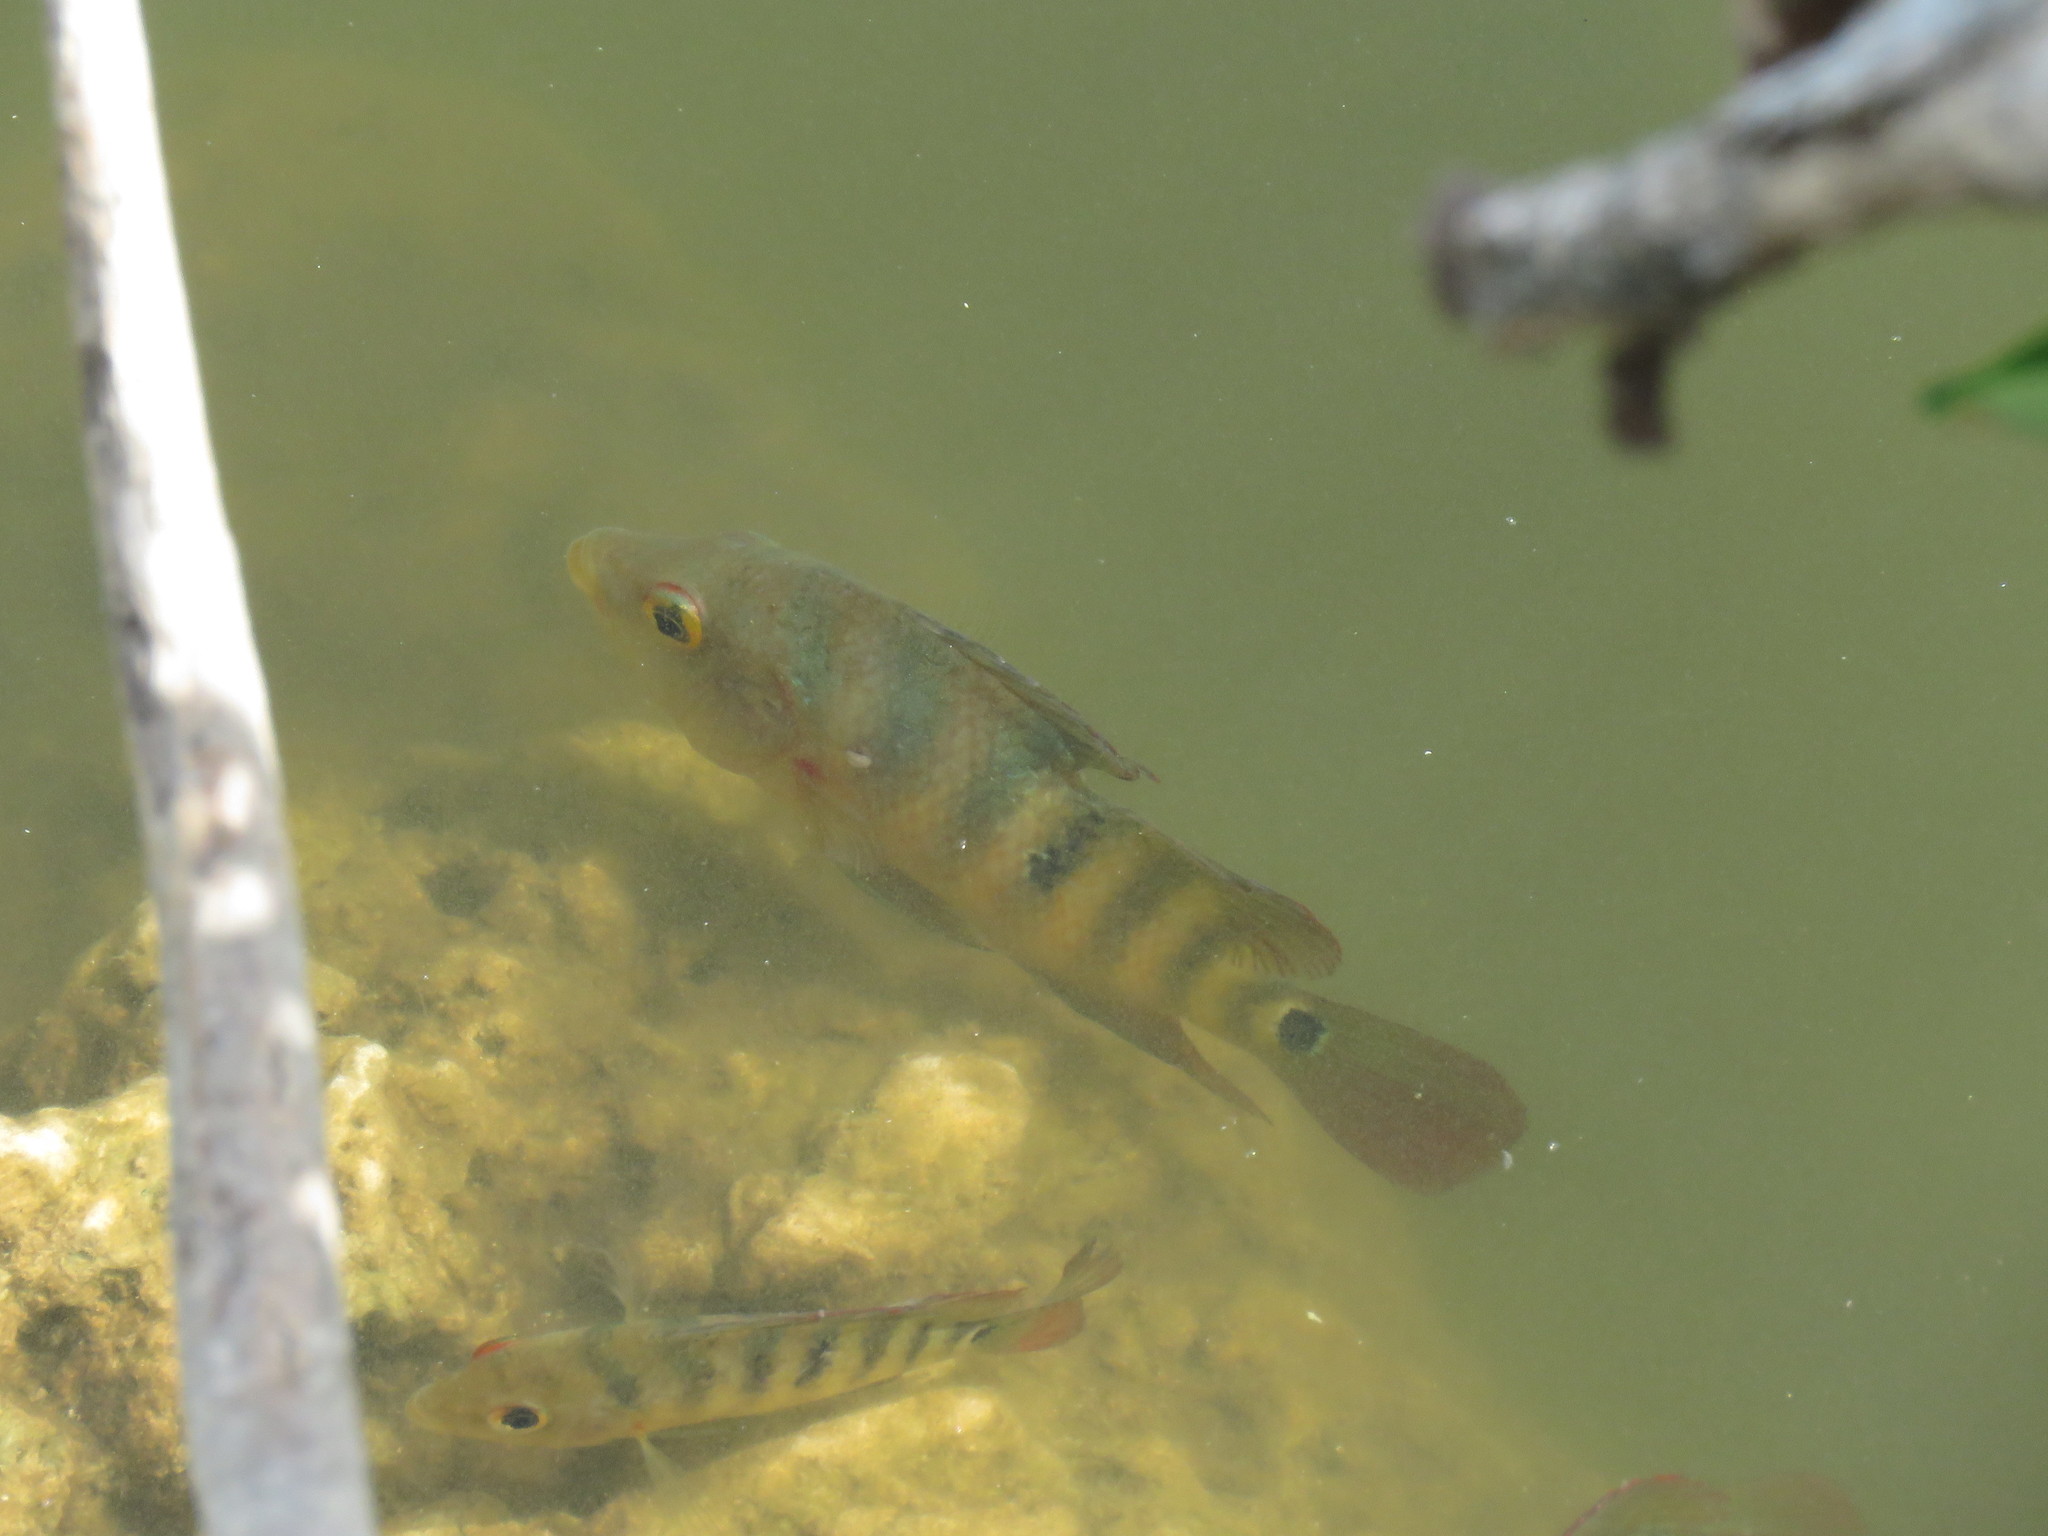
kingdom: Animalia
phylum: Chordata
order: Perciformes
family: Cichlidae
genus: Mayaheros
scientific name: Mayaheros urophthalmus
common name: Mayan cichlid
